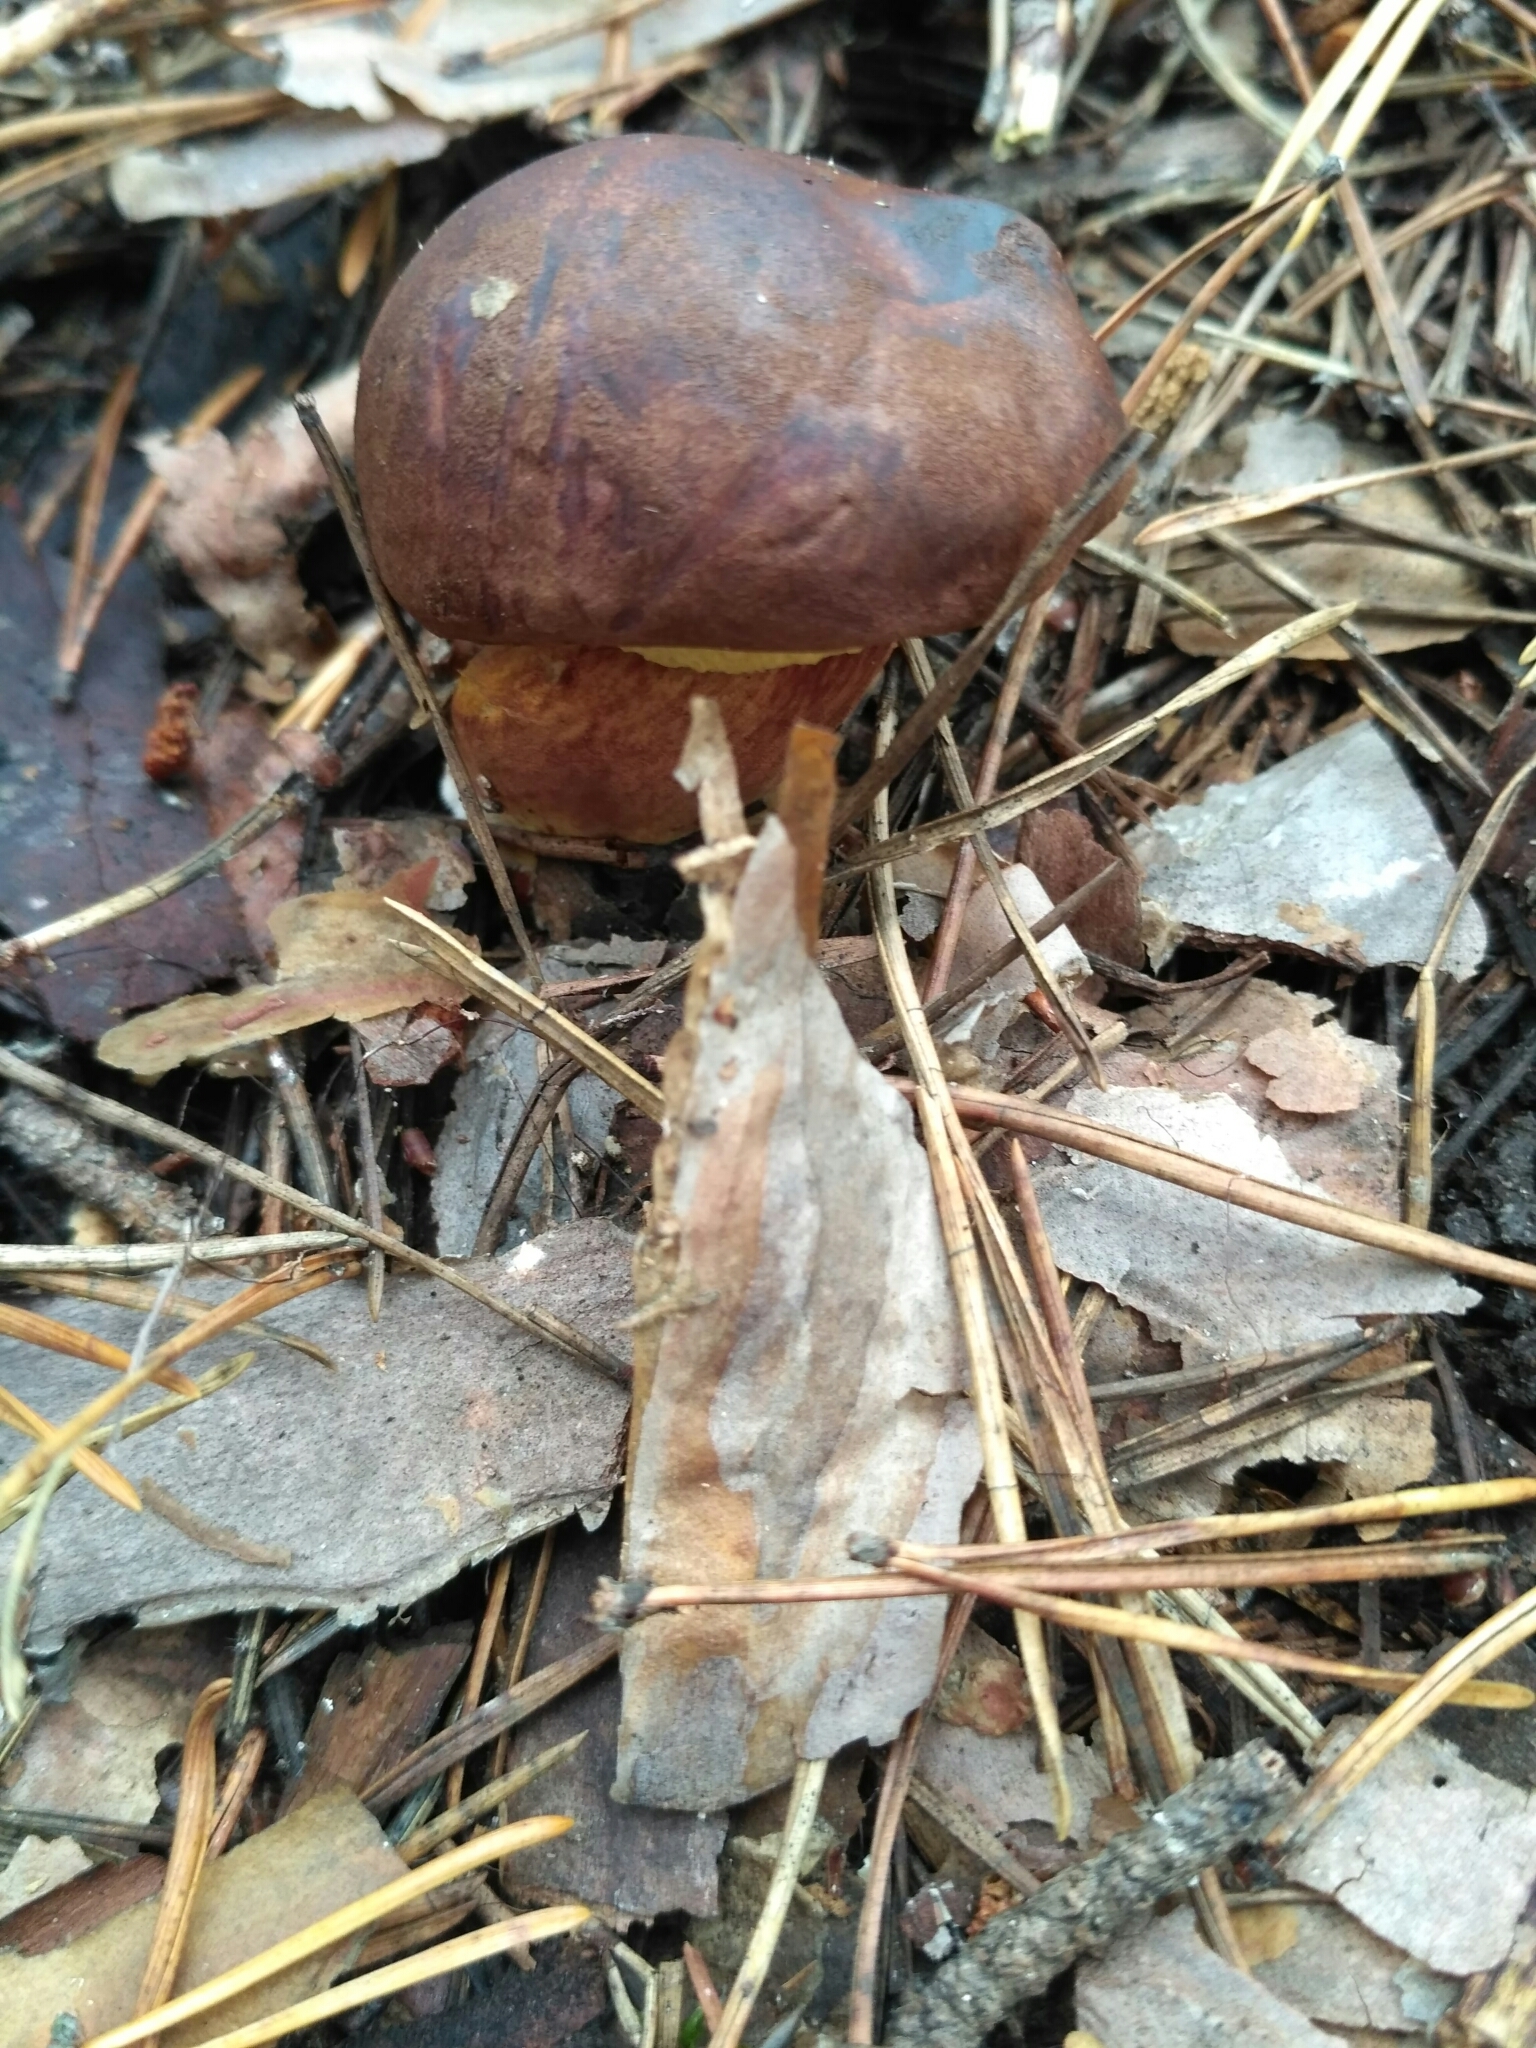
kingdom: Fungi
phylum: Basidiomycota
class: Agaricomycetes
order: Boletales
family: Boletaceae
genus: Imleria
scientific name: Imleria badia
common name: Bay bolete
